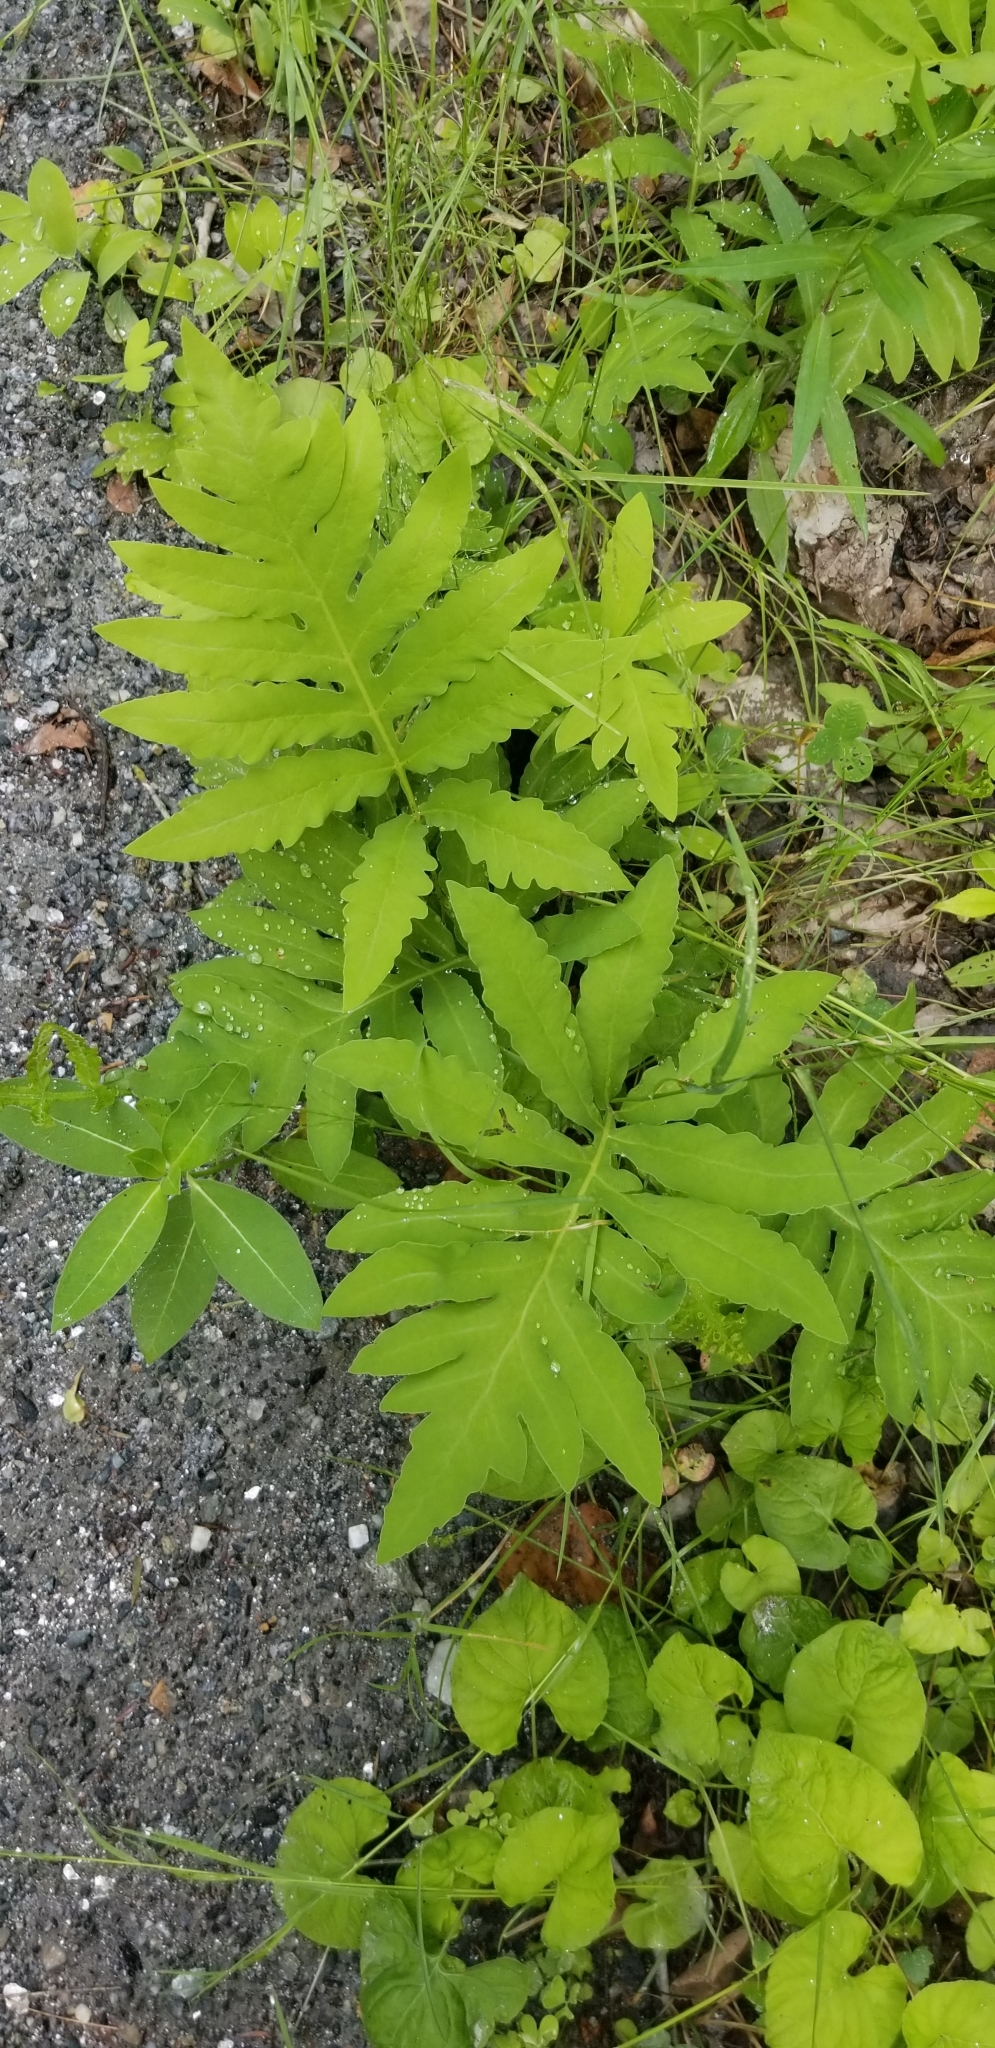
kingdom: Plantae
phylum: Tracheophyta
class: Polypodiopsida
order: Polypodiales
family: Onocleaceae
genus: Onoclea
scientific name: Onoclea sensibilis
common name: Sensitive fern
